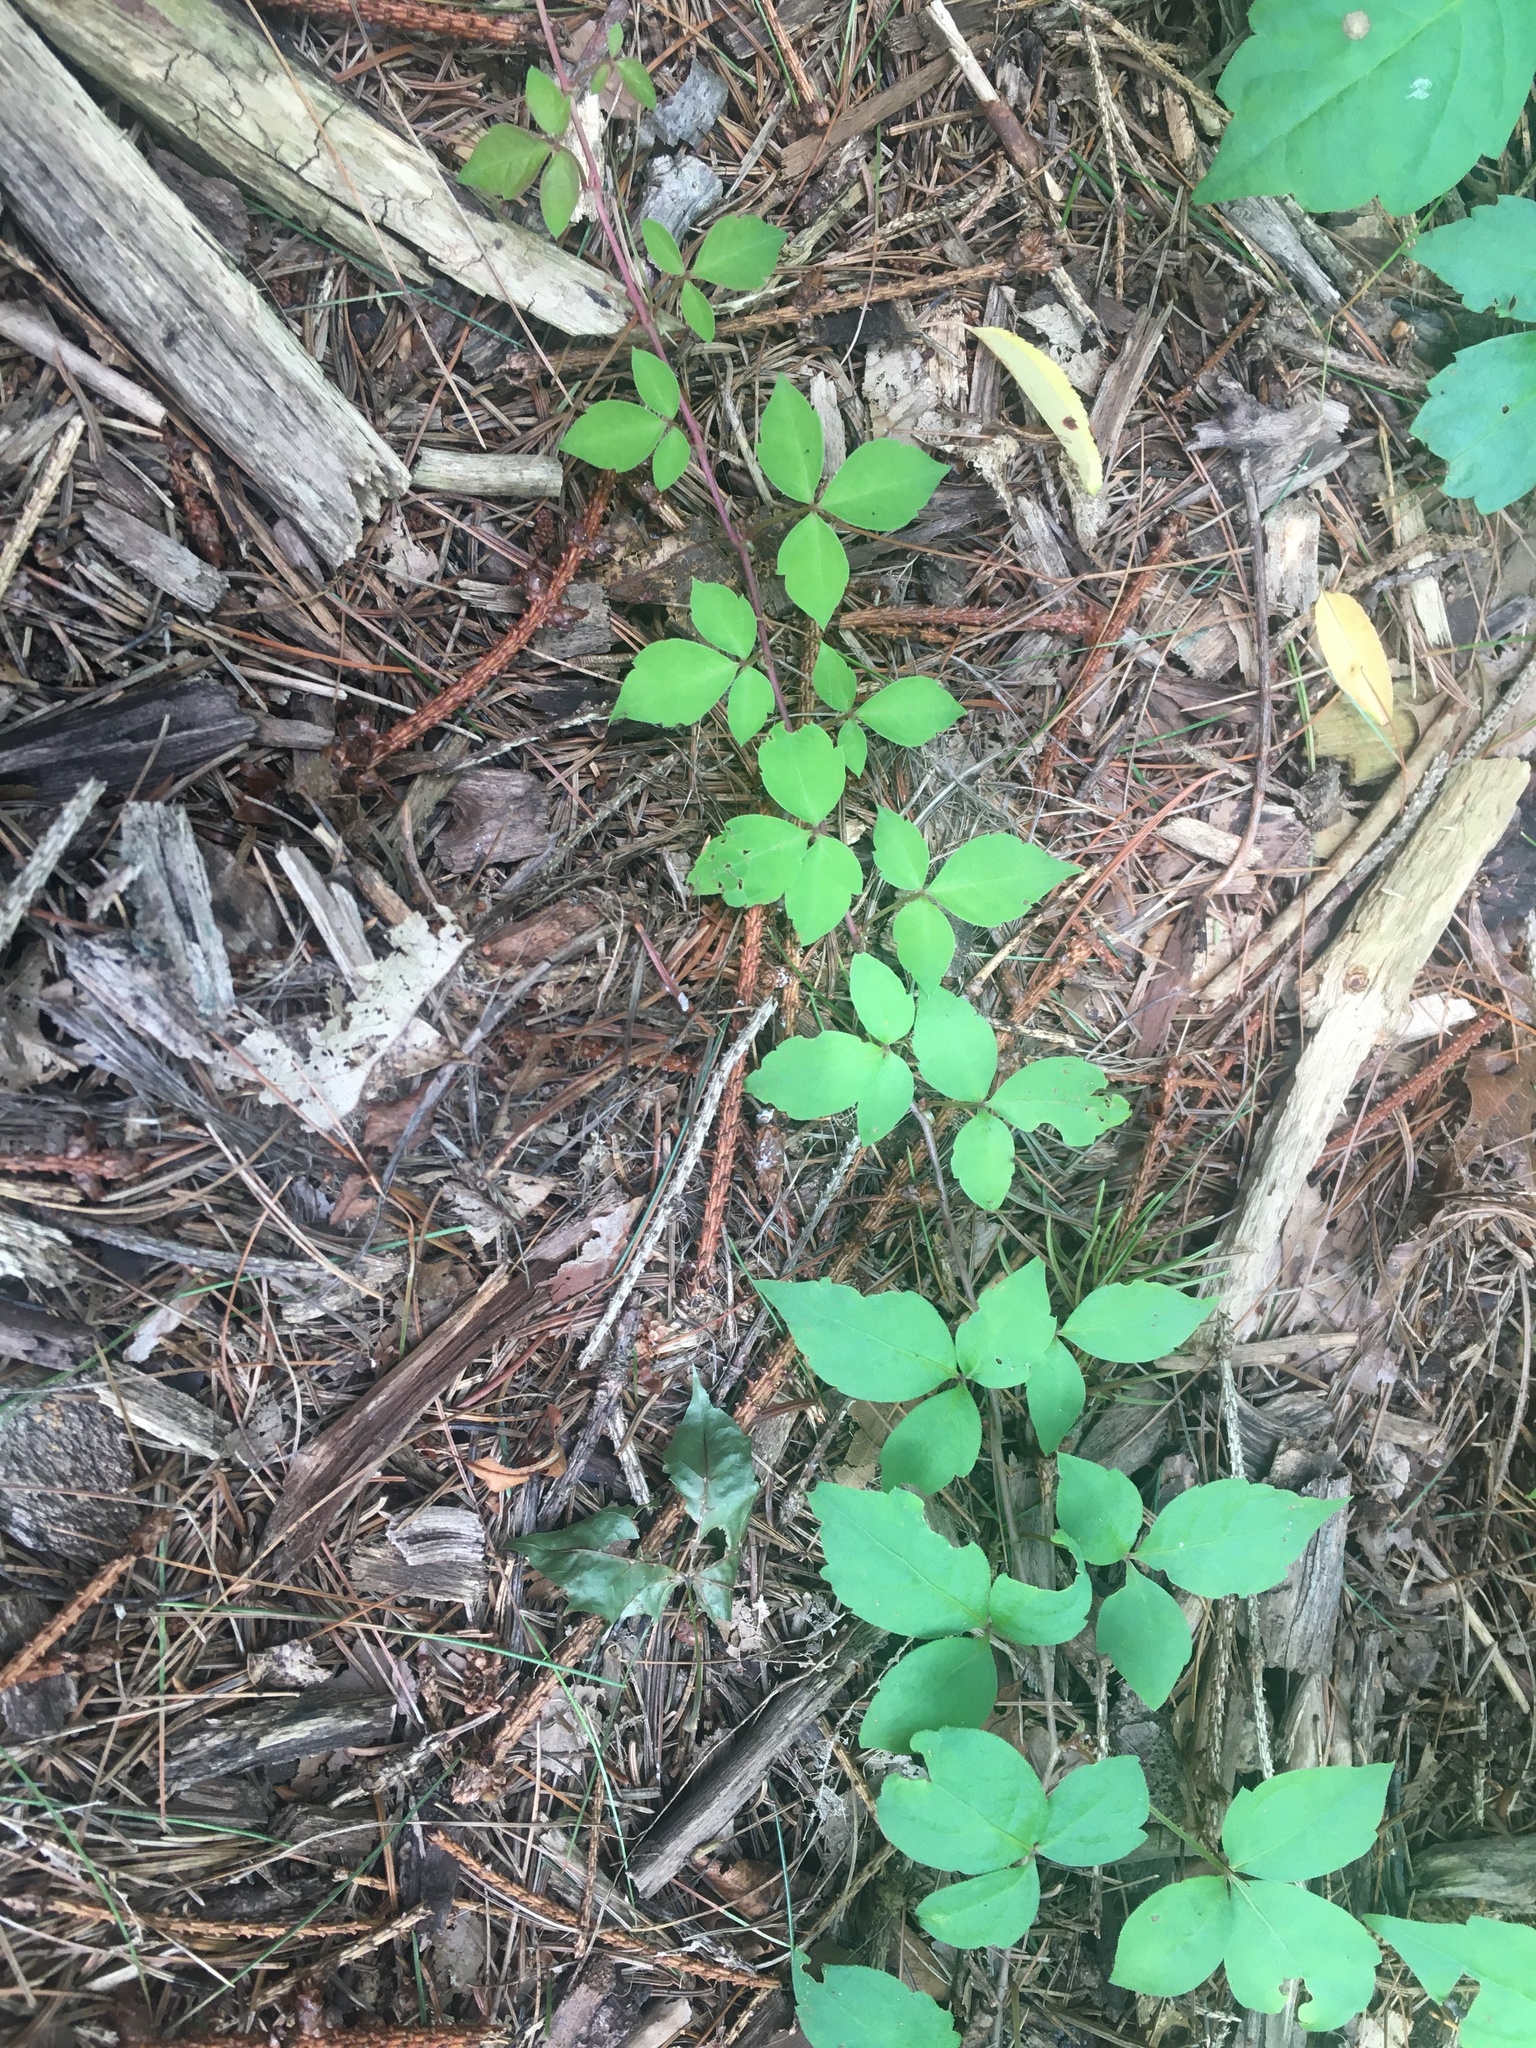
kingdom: Plantae
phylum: Tracheophyta
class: Magnoliopsida
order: Sapindales
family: Anacardiaceae
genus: Toxicodendron
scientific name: Toxicodendron radicans
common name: Poison ivy
